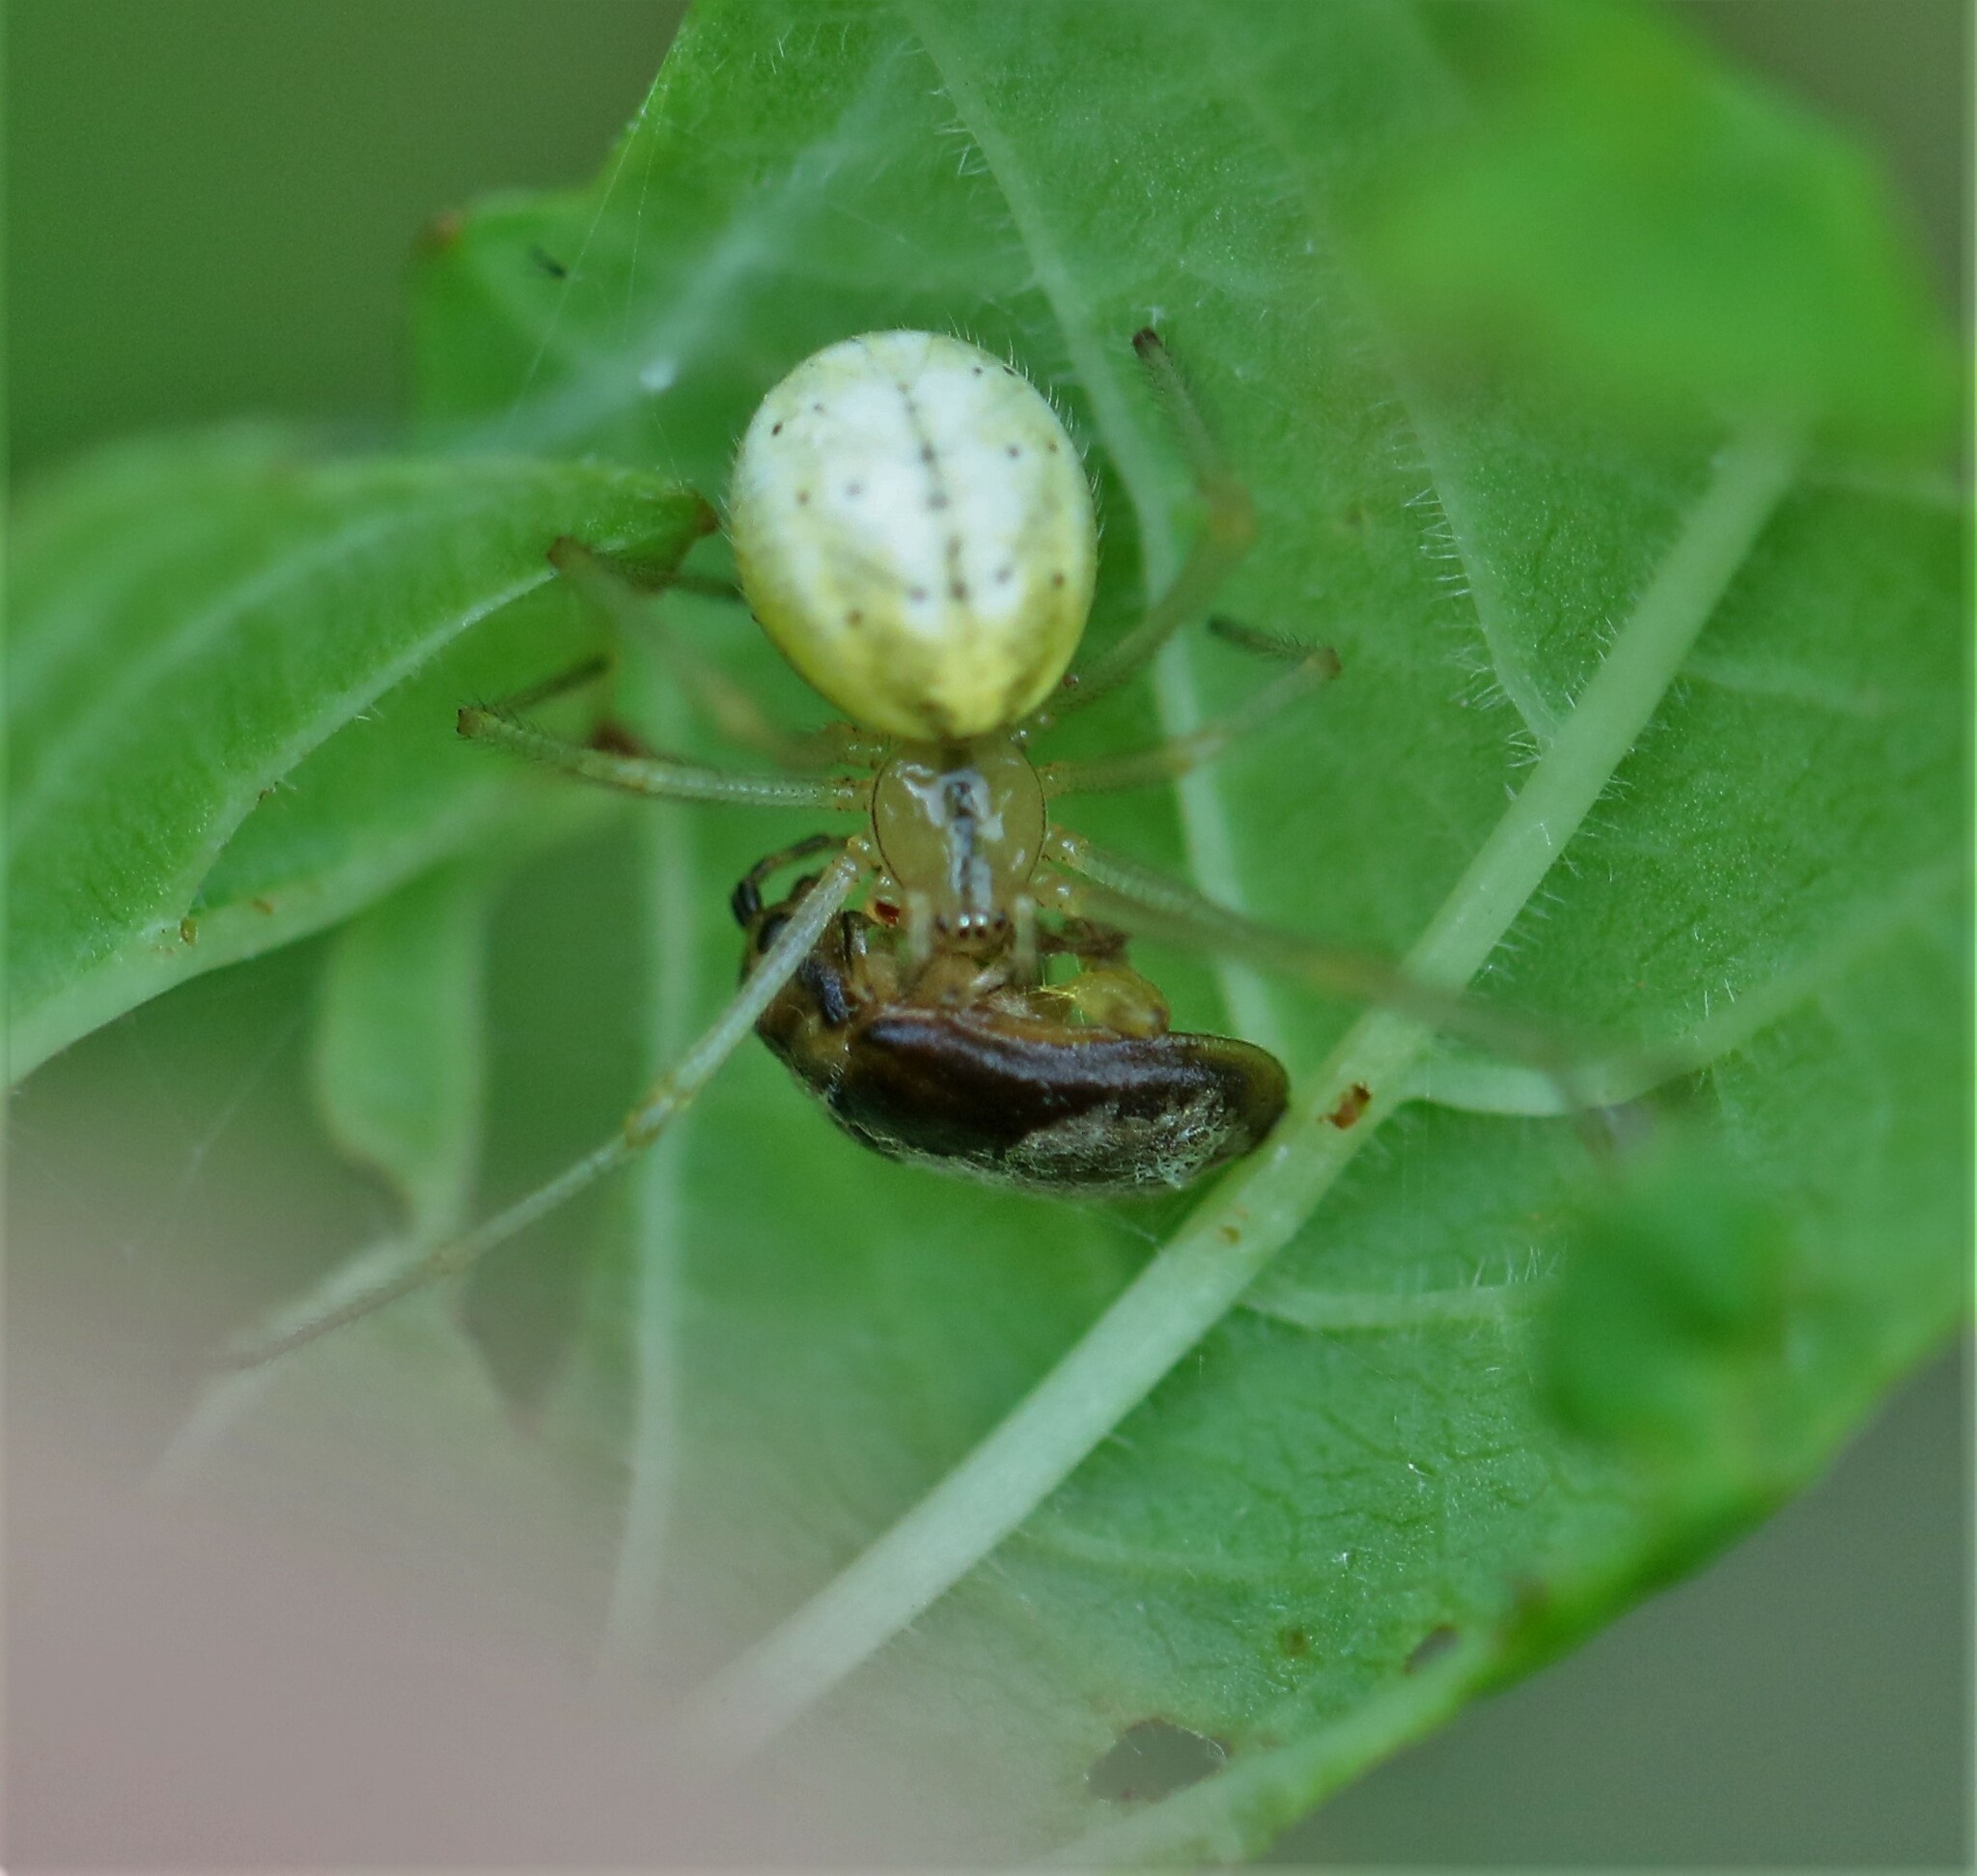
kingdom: Animalia
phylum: Arthropoda
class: Arachnida
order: Araneae
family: Theridiidae
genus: Enoplognatha
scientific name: Enoplognatha ovata
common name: Common candy-striped spider
